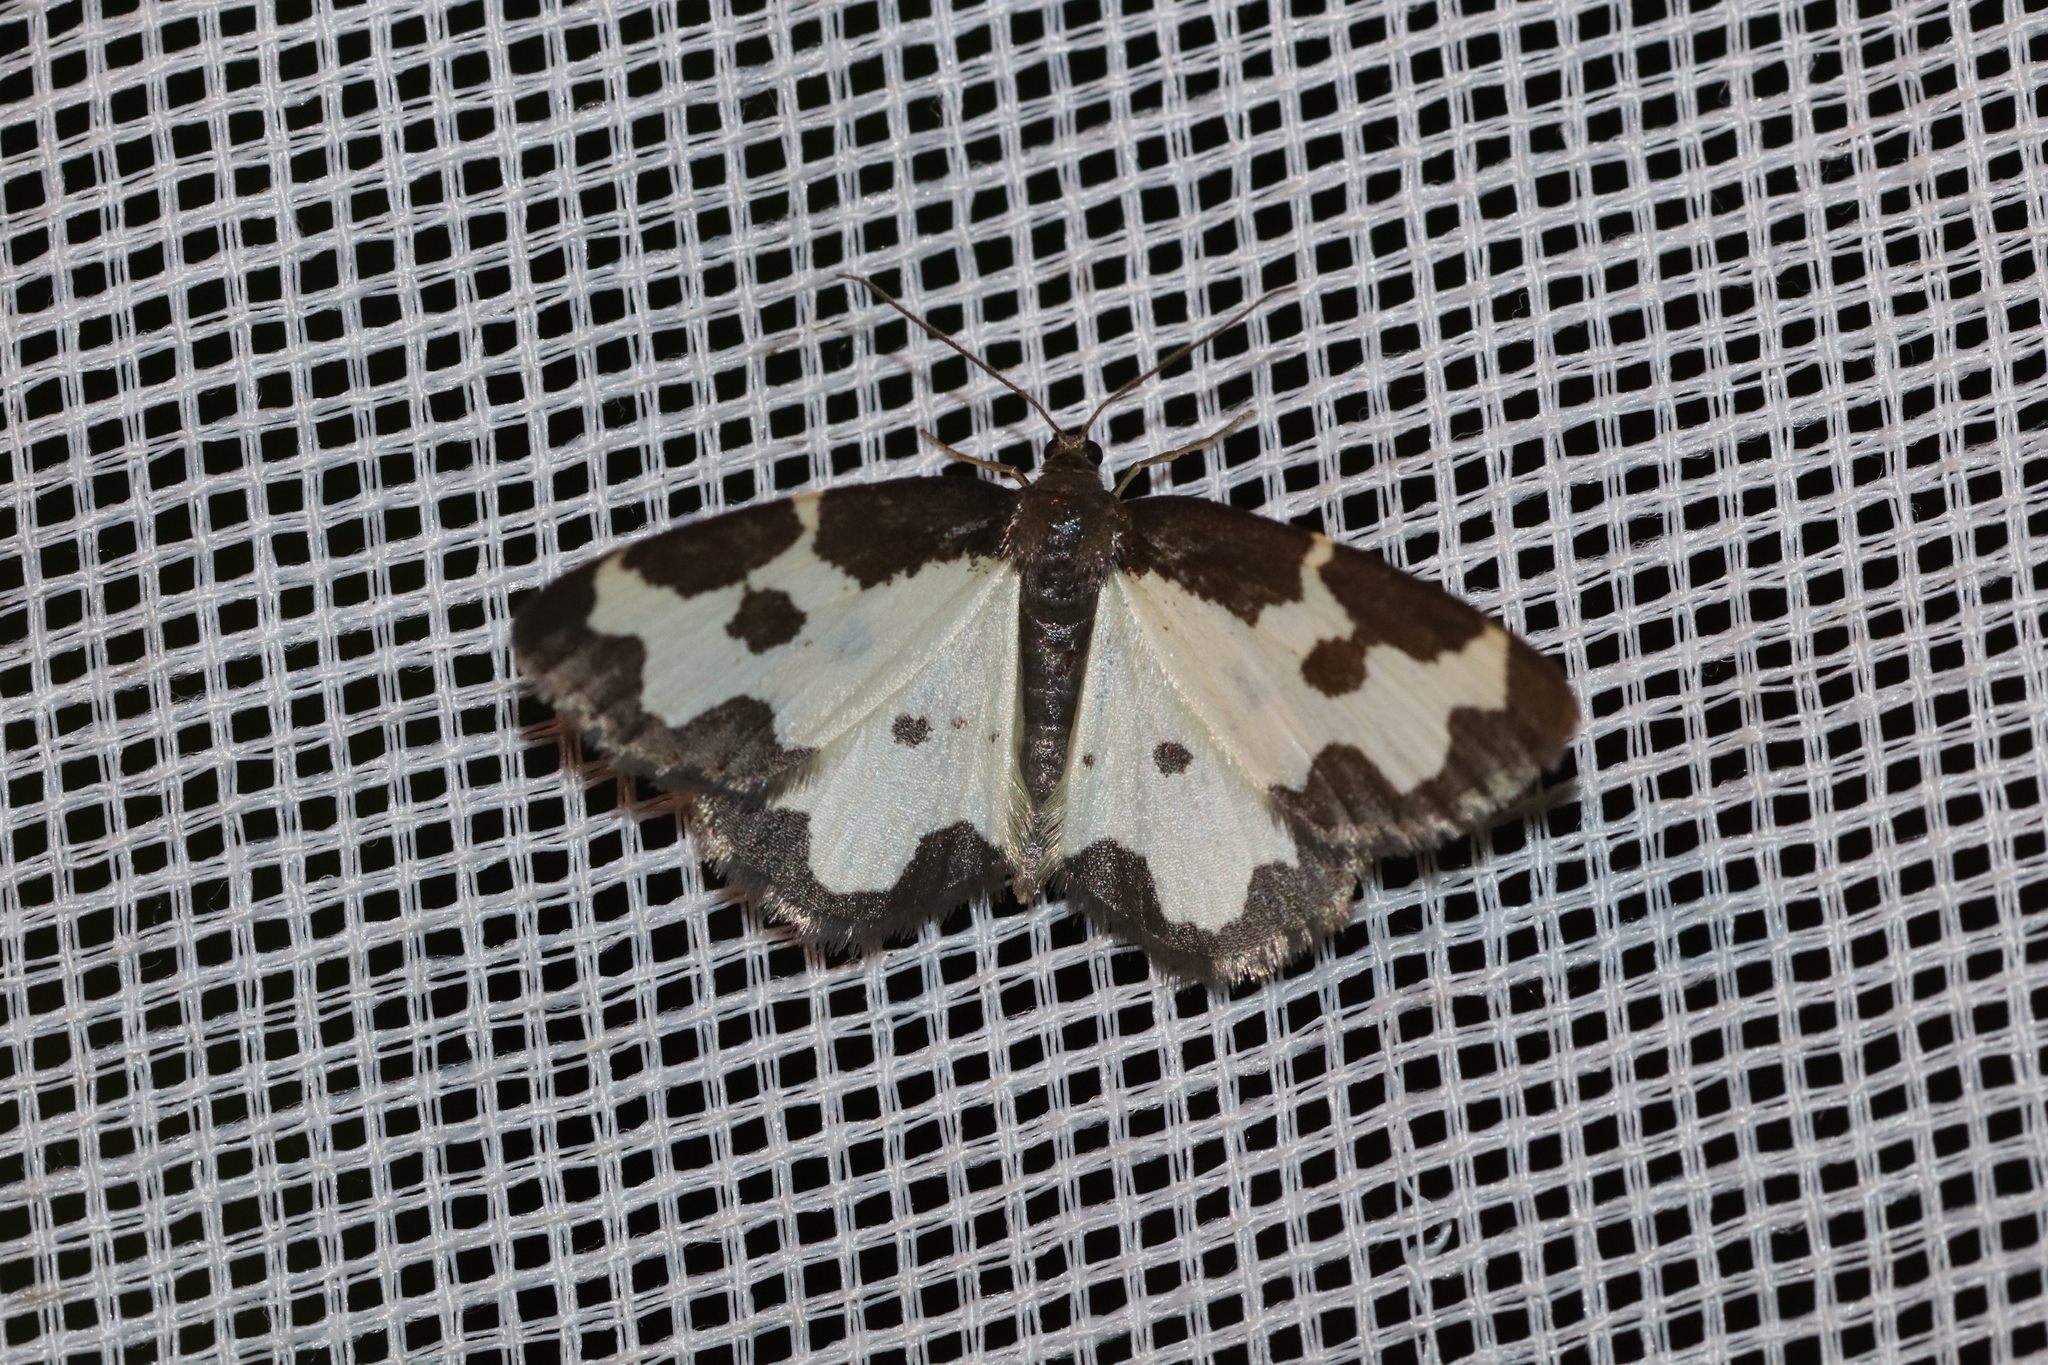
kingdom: Animalia
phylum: Arthropoda
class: Insecta
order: Lepidoptera
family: Geometridae
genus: Lomaspilis
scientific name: Lomaspilis marginata
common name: Clouded border
